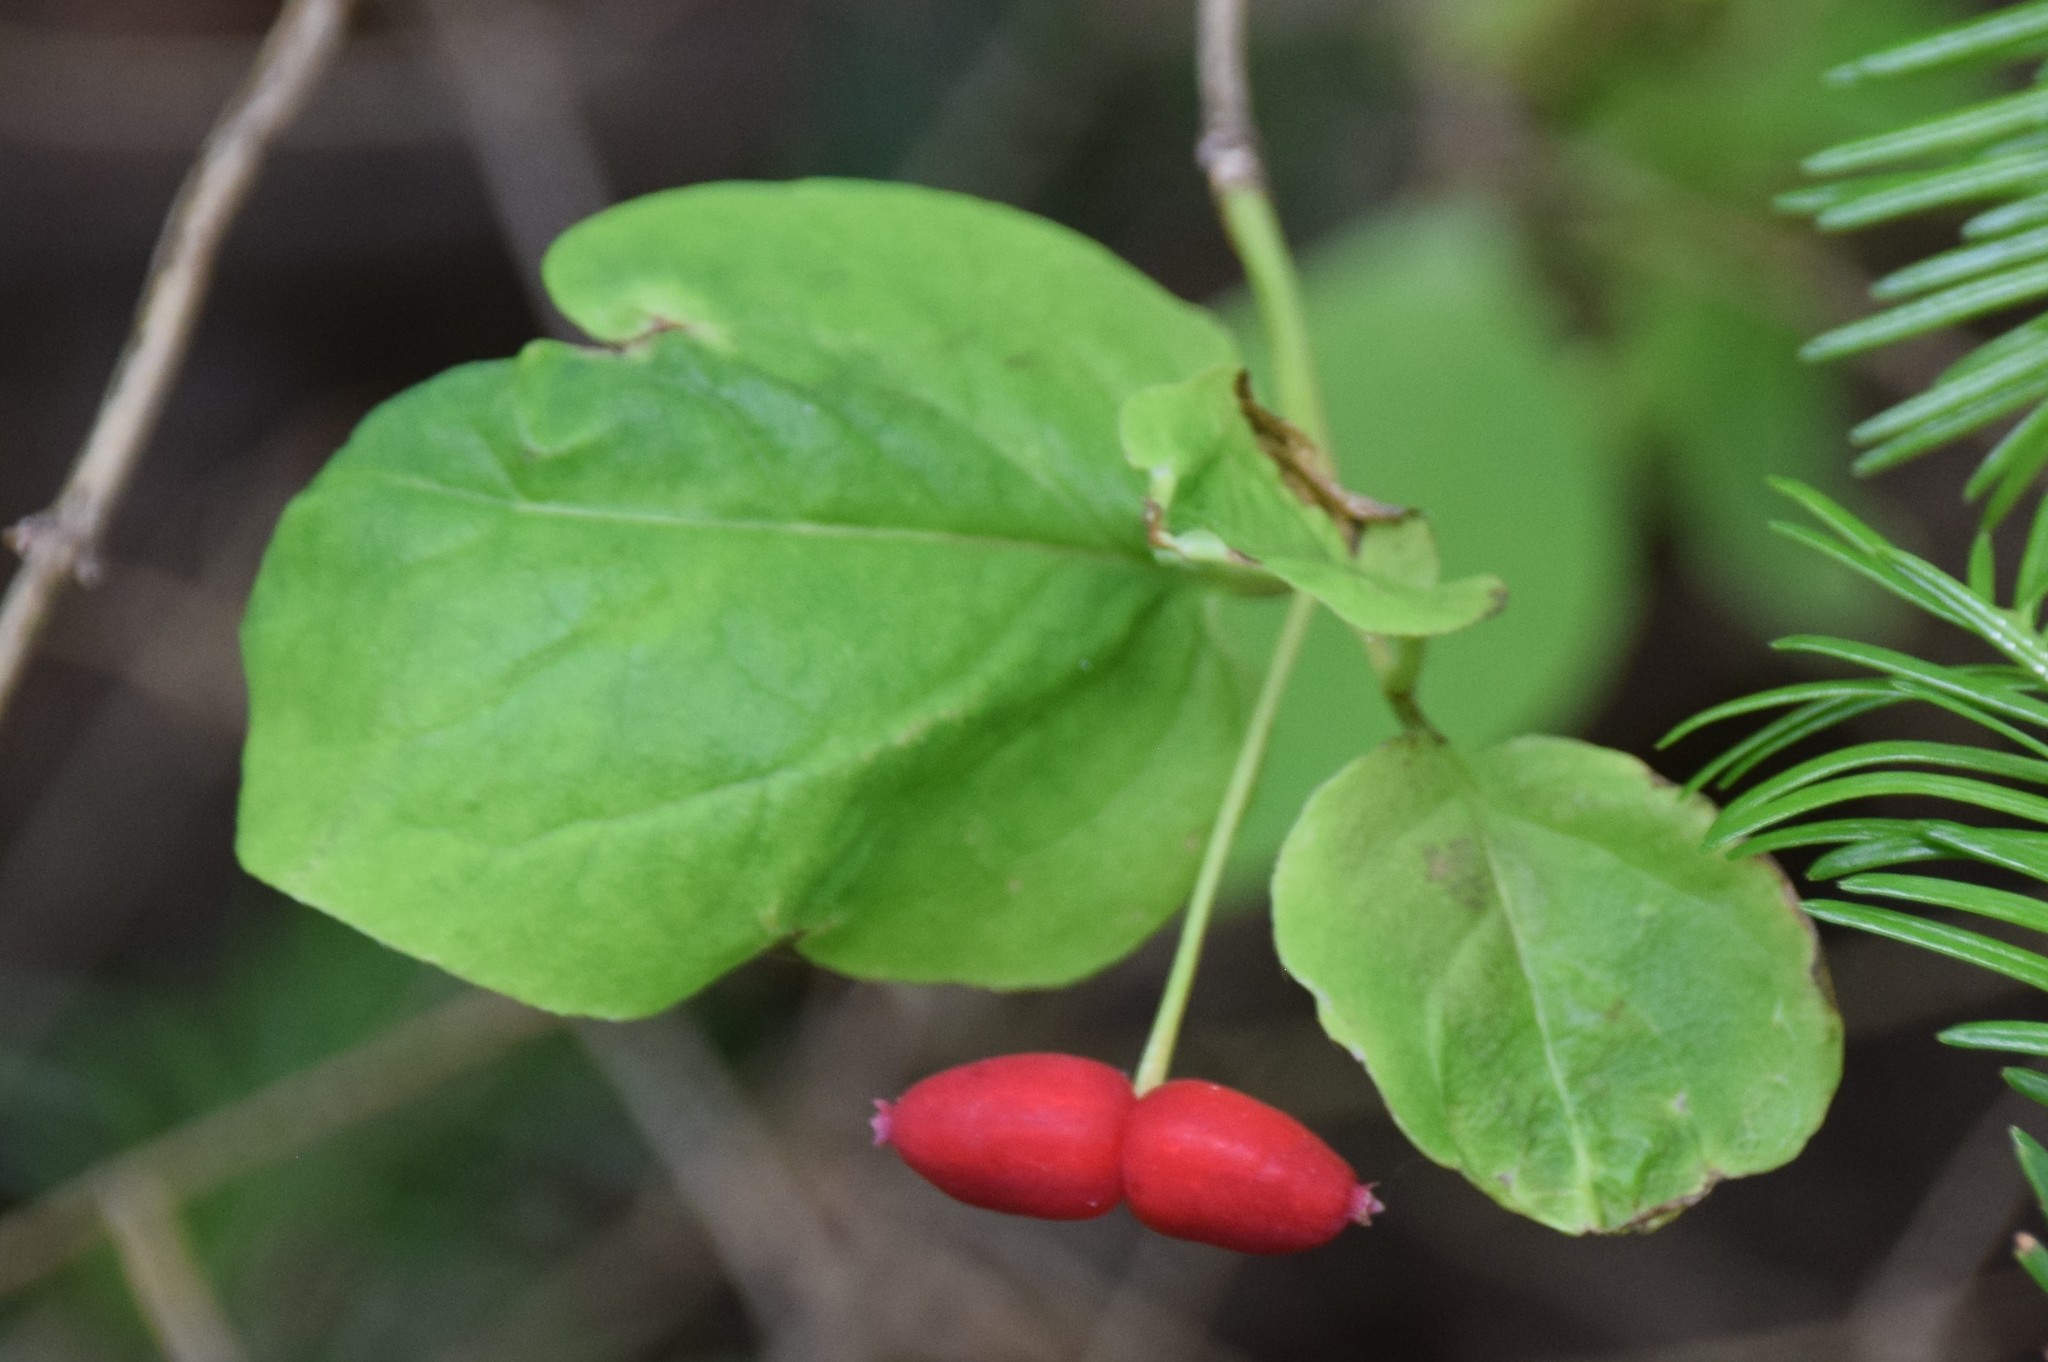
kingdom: Plantae
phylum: Tracheophyta
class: Magnoliopsida
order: Dipsacales
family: Caprifoliaceae
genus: Lonicera
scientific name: Lonicera canadensis
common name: American fly-honeysuckle
